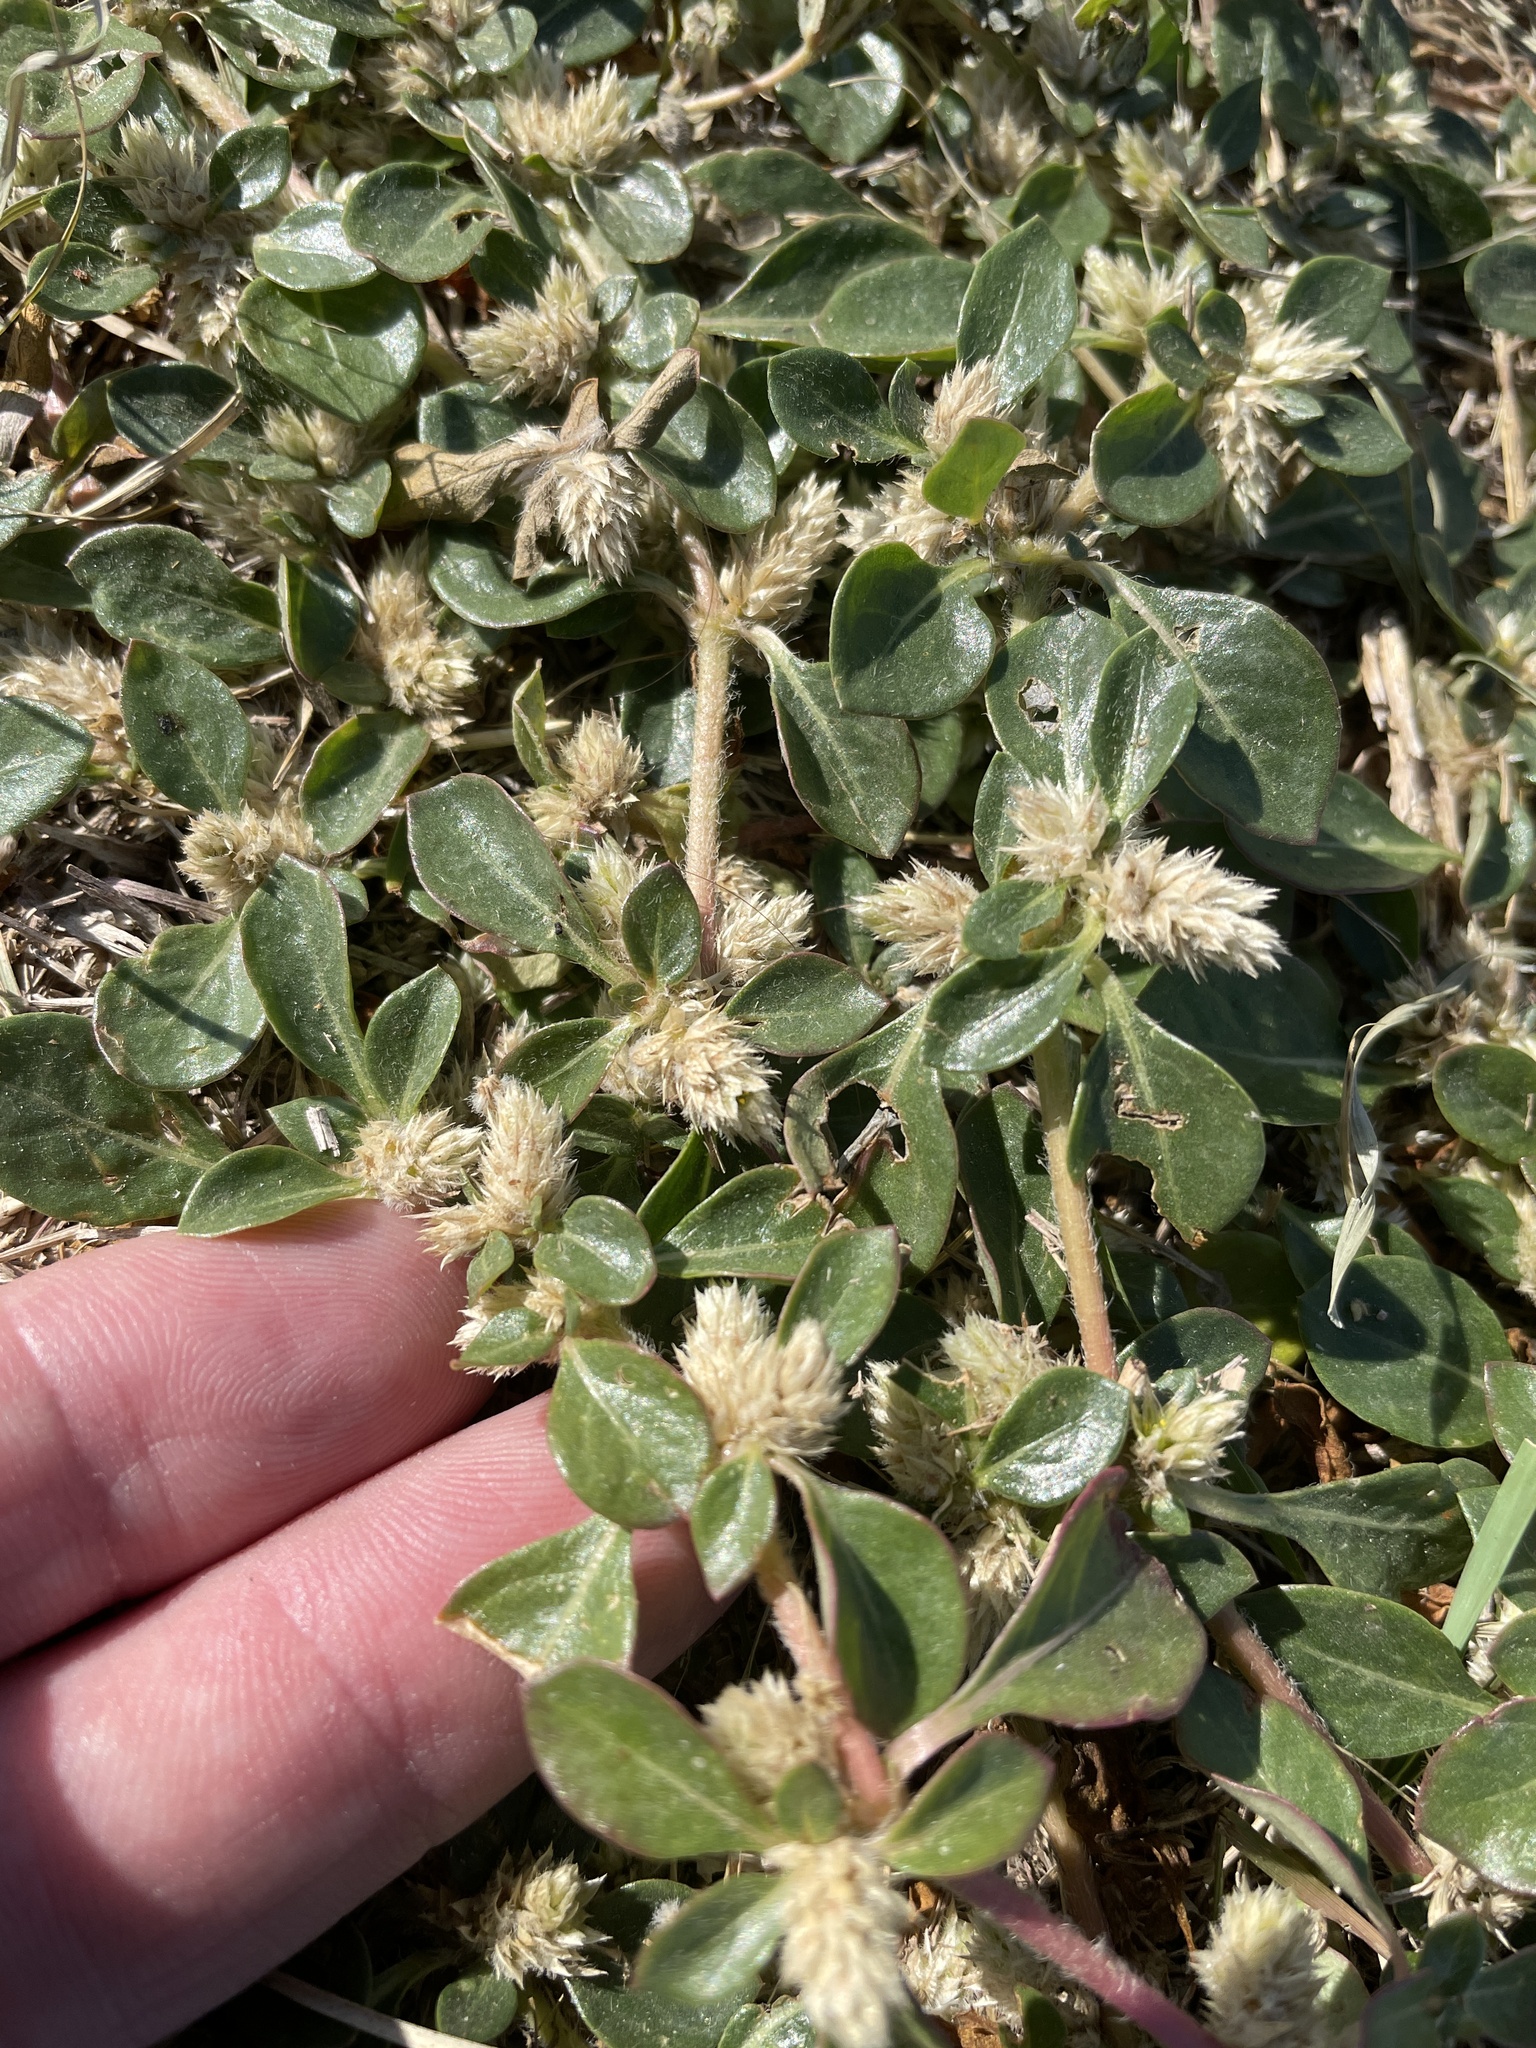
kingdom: Plantae
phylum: Tracheophyta
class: Magnoliopsida
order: Caryophyllales
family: Amaranthaceae
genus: Alternanthera
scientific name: Alternanthera caracasana
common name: Washerwoman
